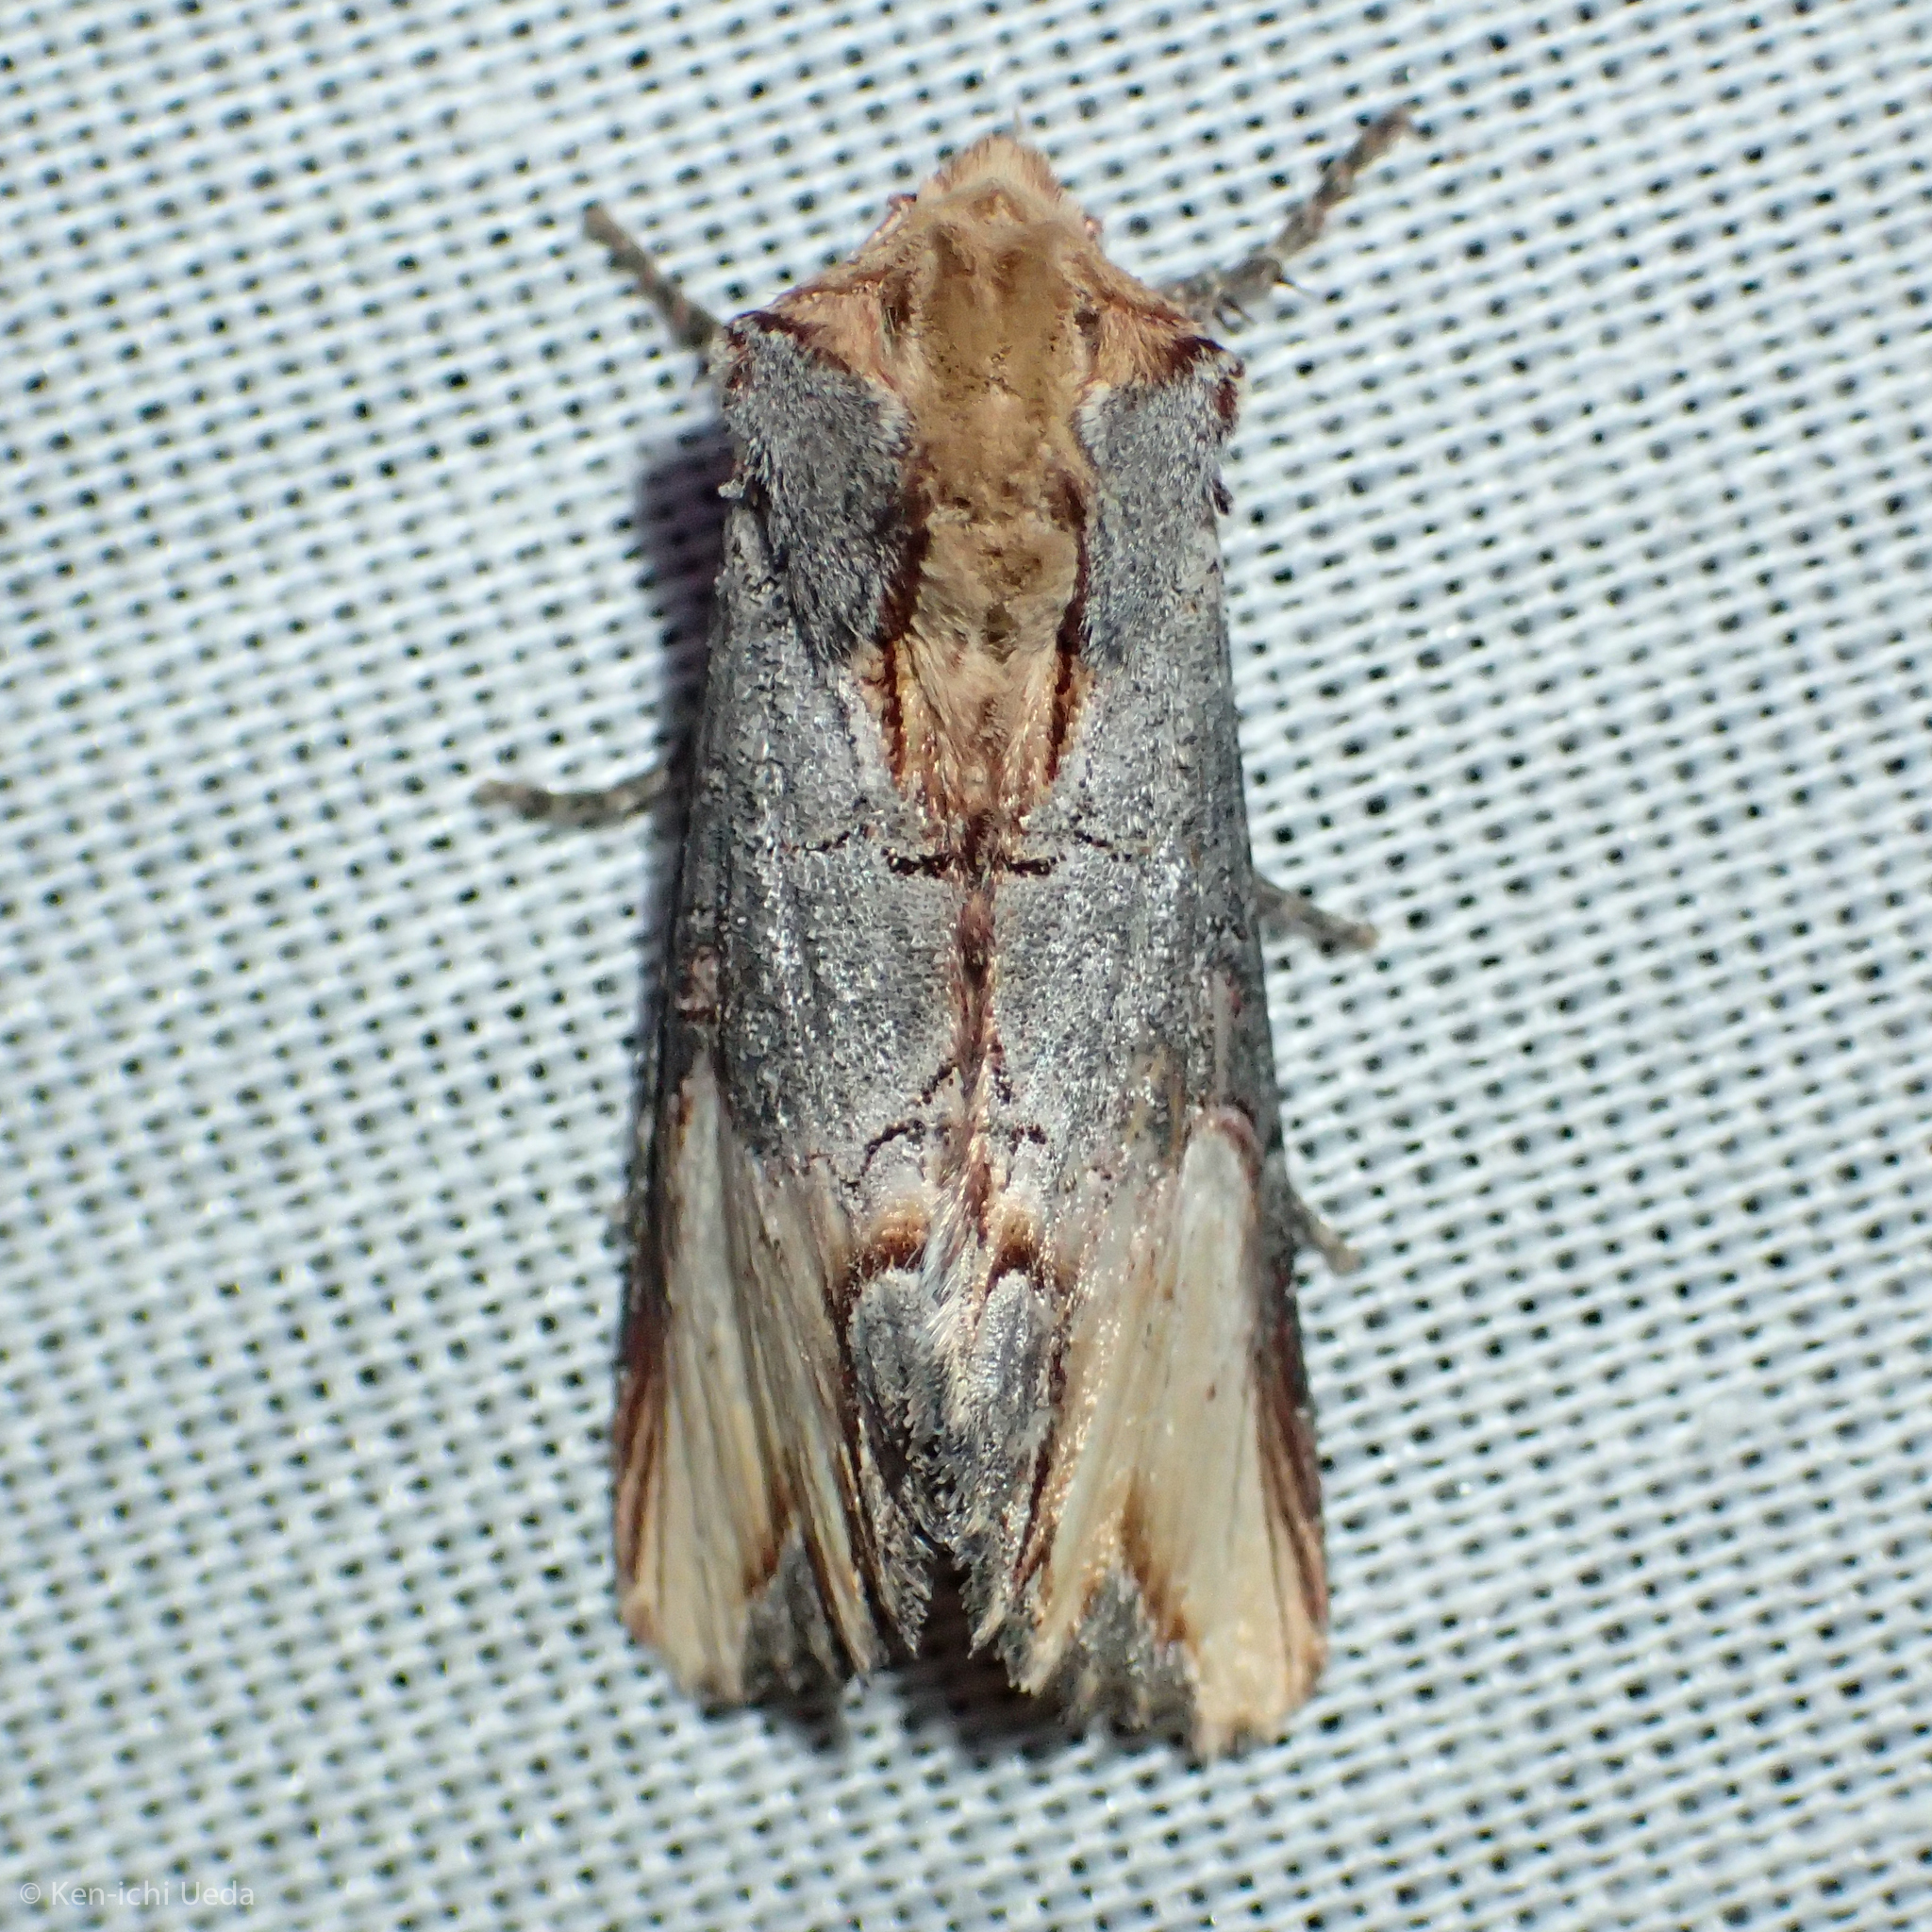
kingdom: Animalia
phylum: Arthropoda
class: Insecta
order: Lepidoptera
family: Noctuidae
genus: Admetovis
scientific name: Admetovis similaris
